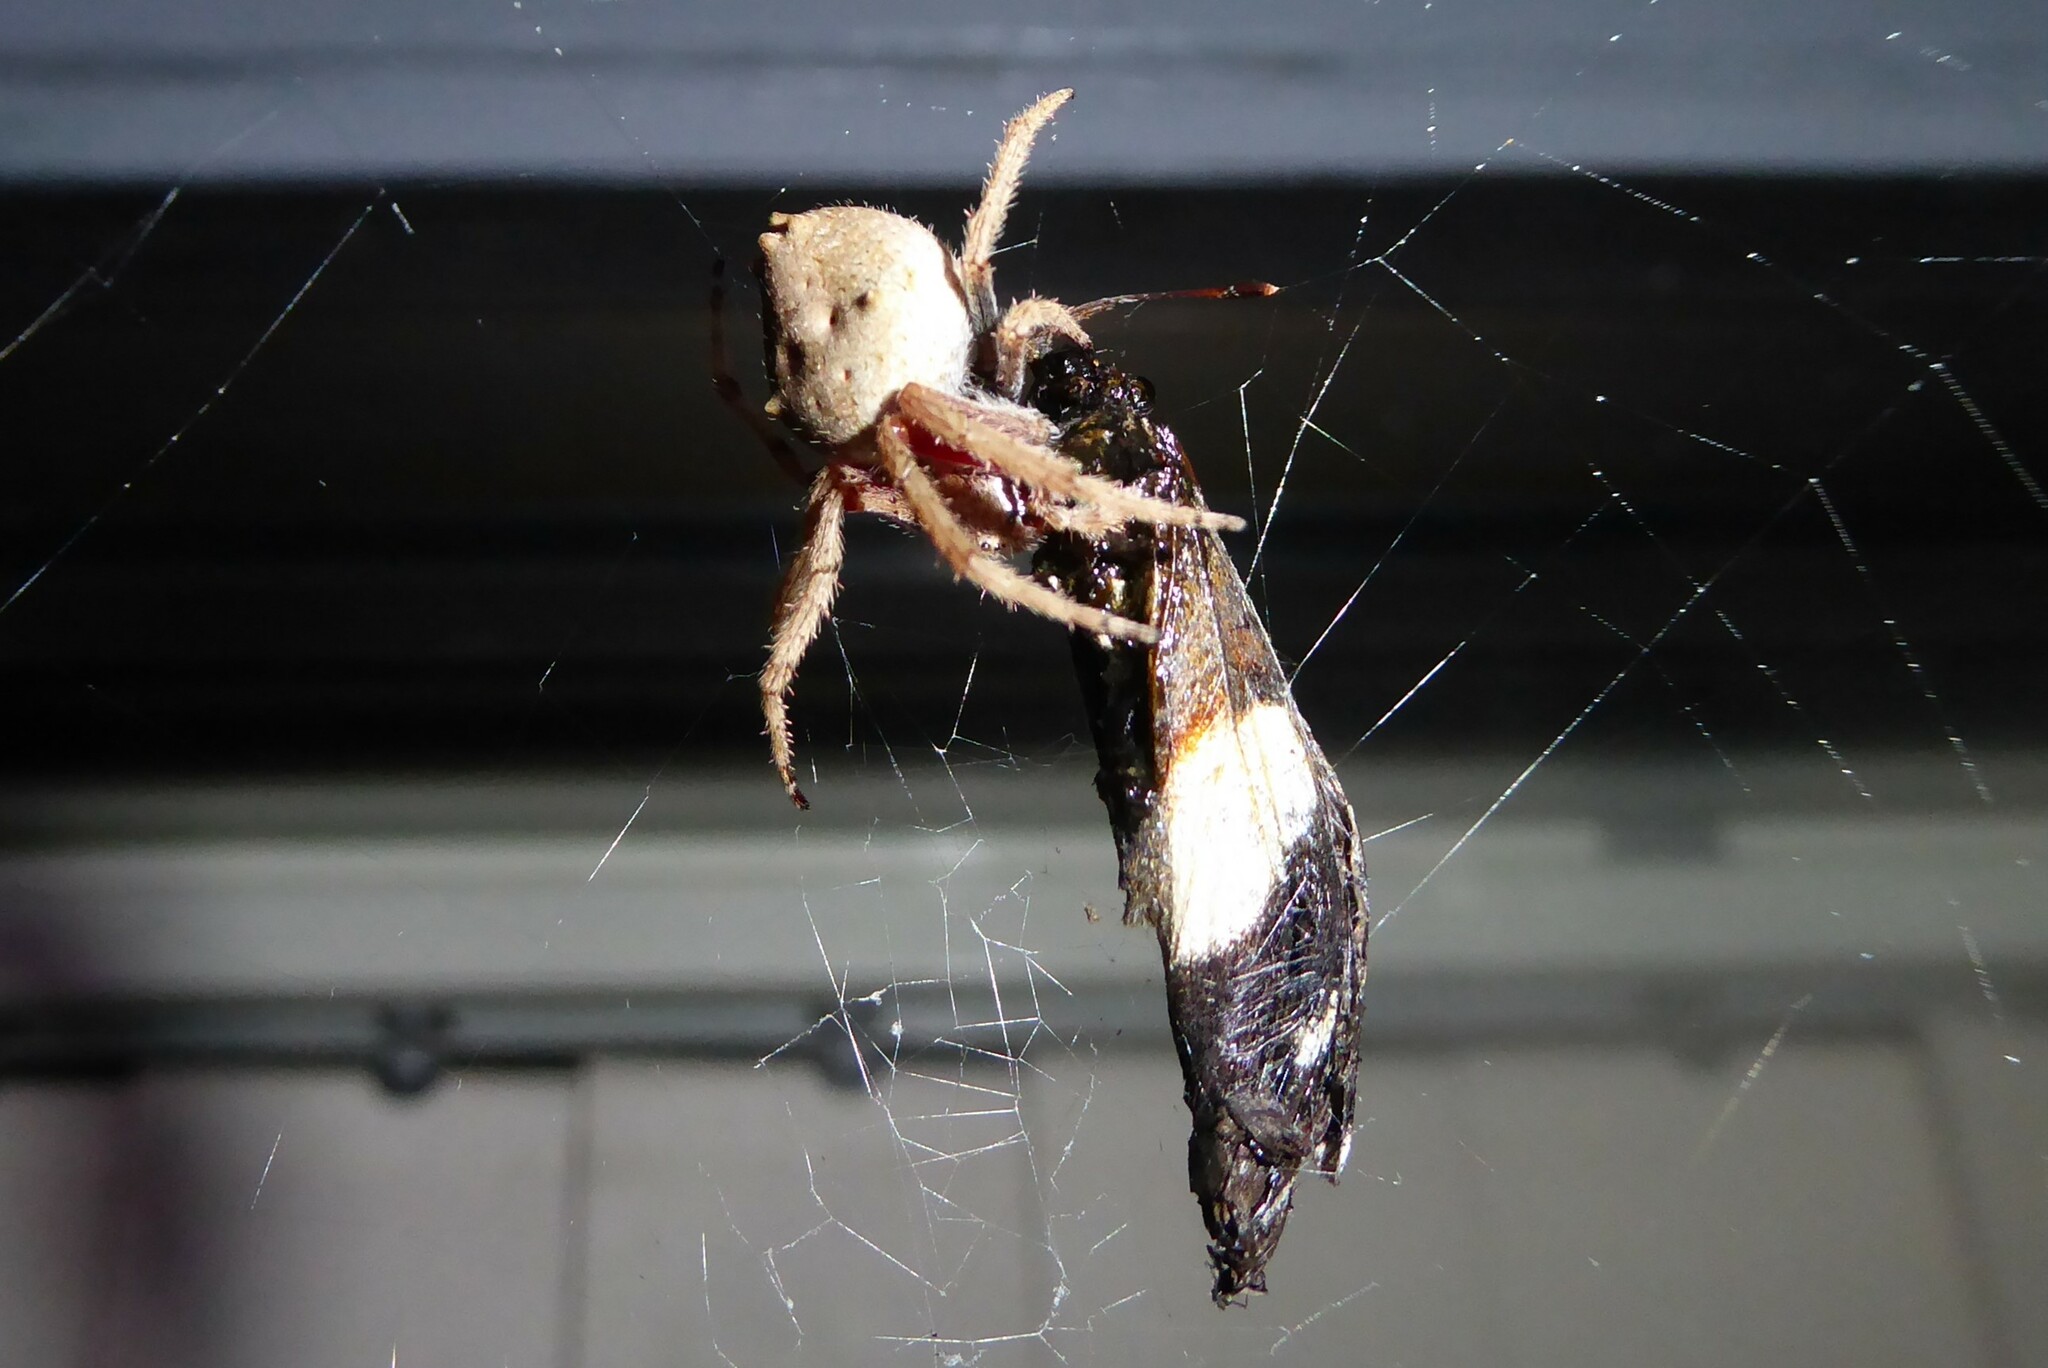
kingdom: Animalia
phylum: Arthropoda
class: Arachnida
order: Araneae
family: Araneidae
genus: Eriophora
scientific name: Eriophora pustulosa
